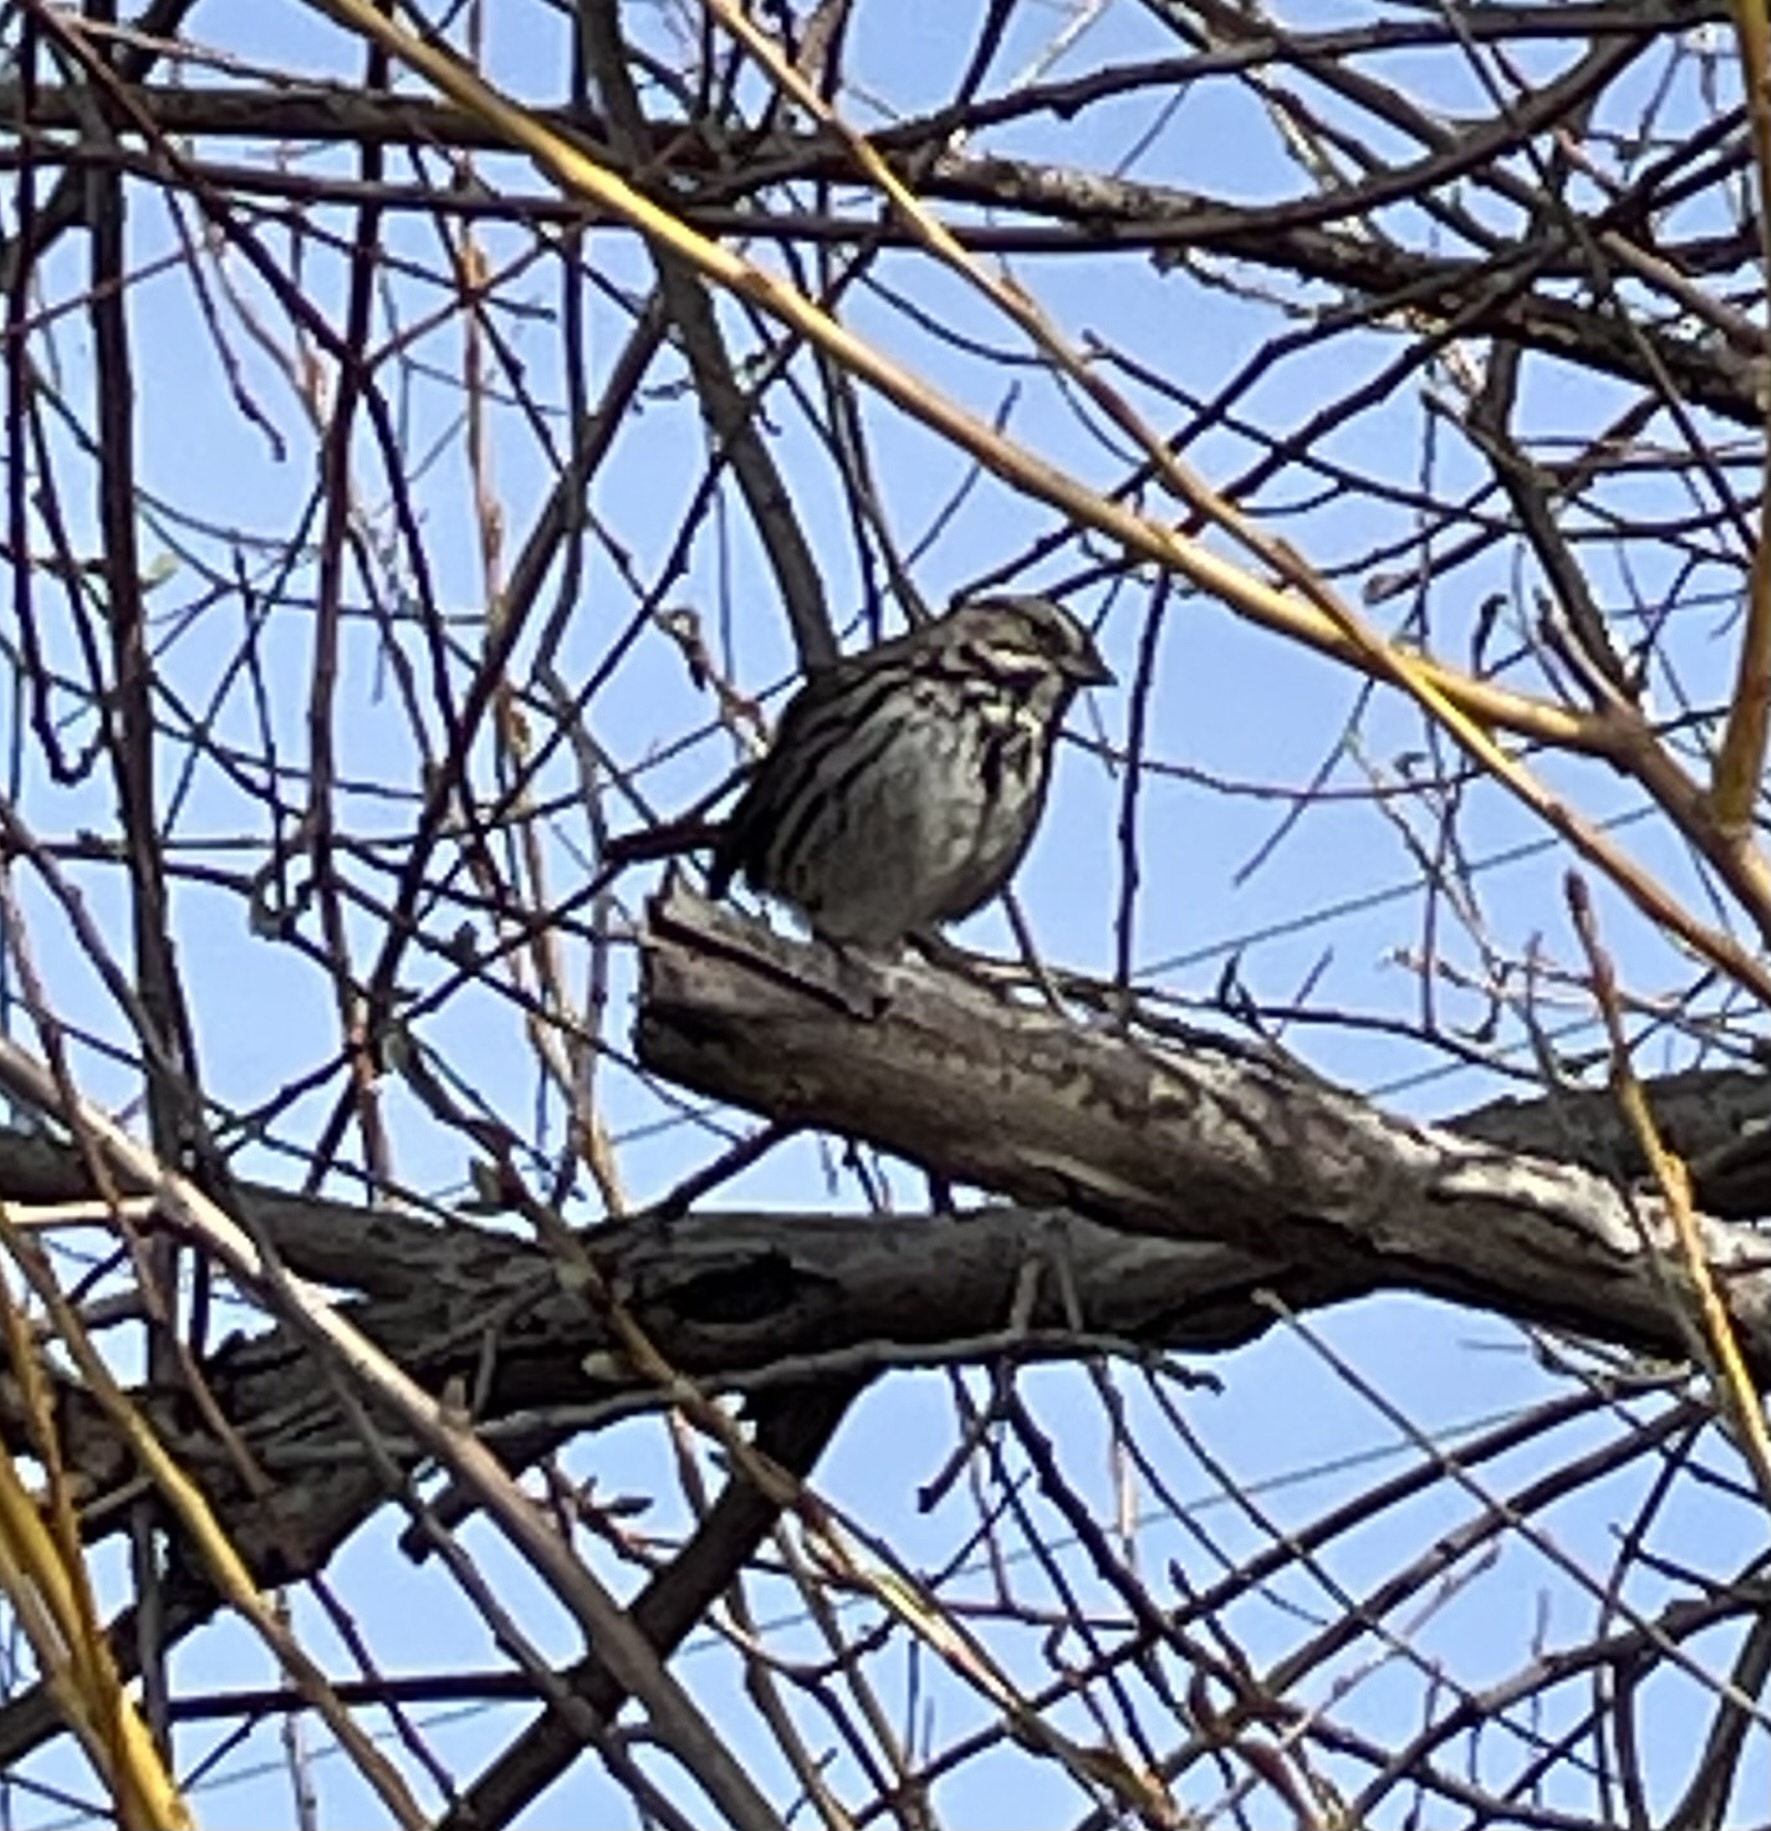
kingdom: Animalia
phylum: Chordata
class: Aves
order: Passeriformes
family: Passerellidae
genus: Melospiza
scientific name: Melospiza melodia
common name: Song sparrow
